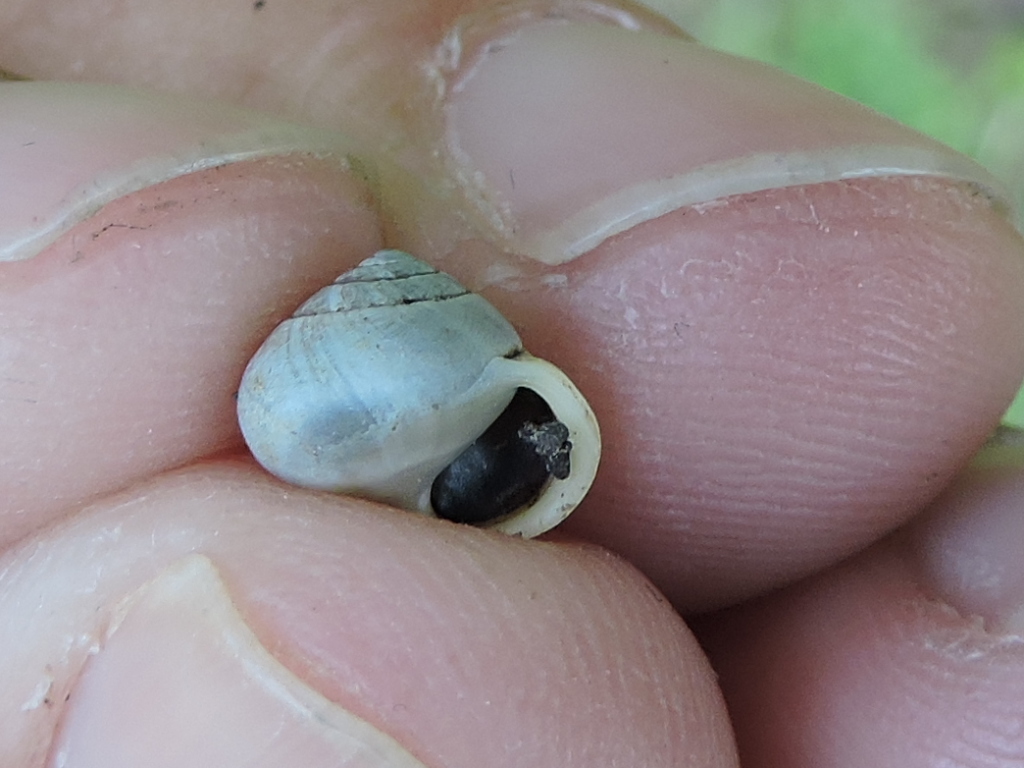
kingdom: Animalia
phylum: Mollusca
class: Gastropoda
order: Cycloneritida
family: Helicinidae
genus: Helicina
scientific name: Helicina orbiculata
